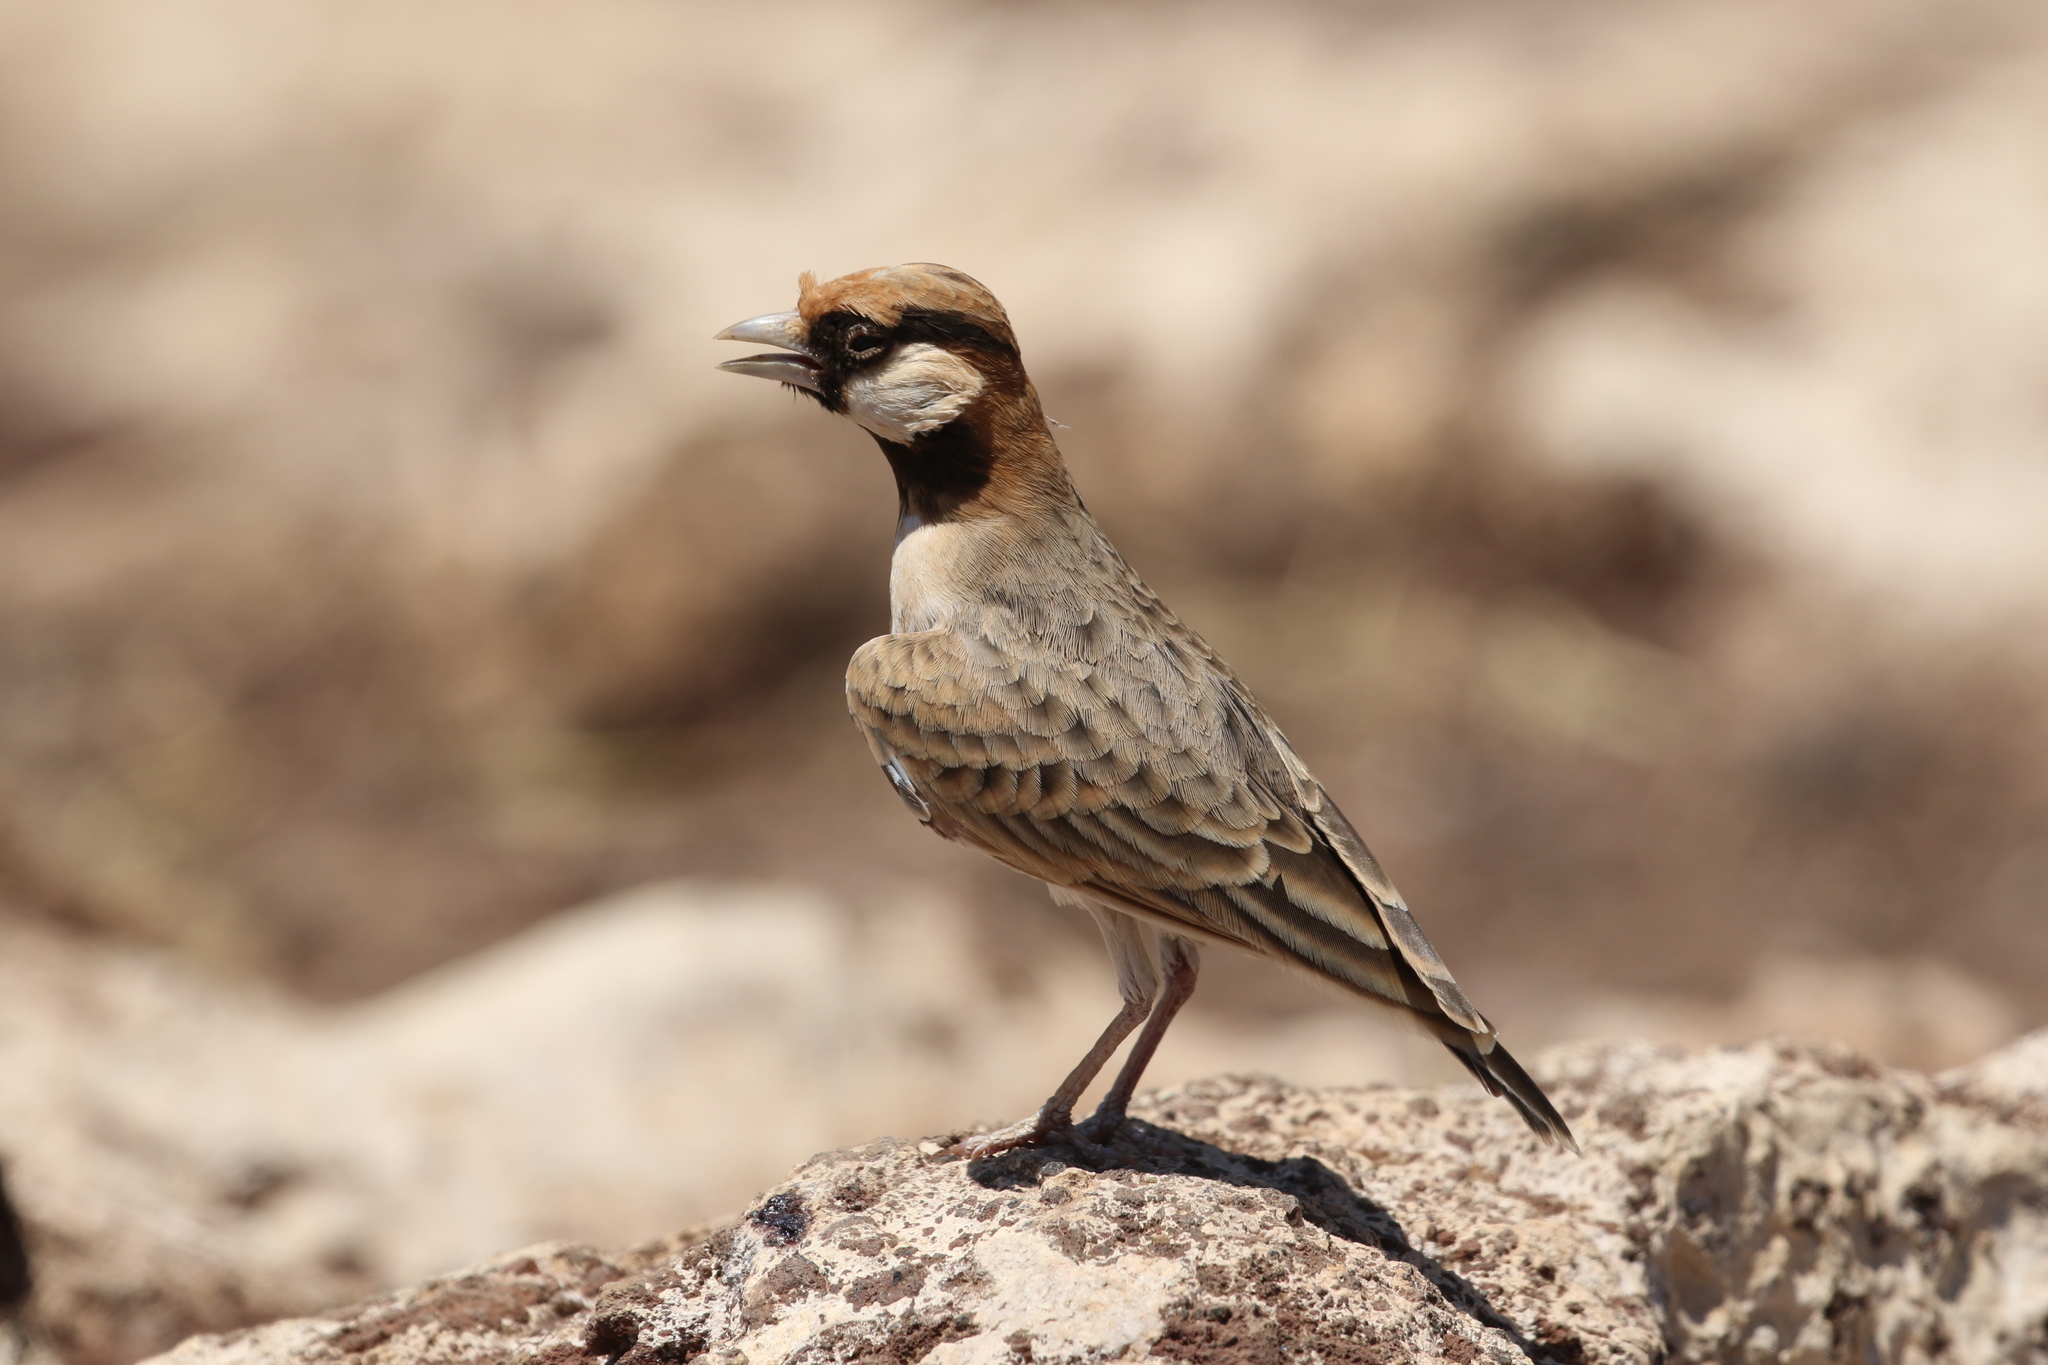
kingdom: Animalia
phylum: Chordata
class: Aves
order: Passeriformes
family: Alaudidae
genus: Eremopterix
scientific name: Eremopterix leucopareia
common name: Fischer's sparrow-lark
